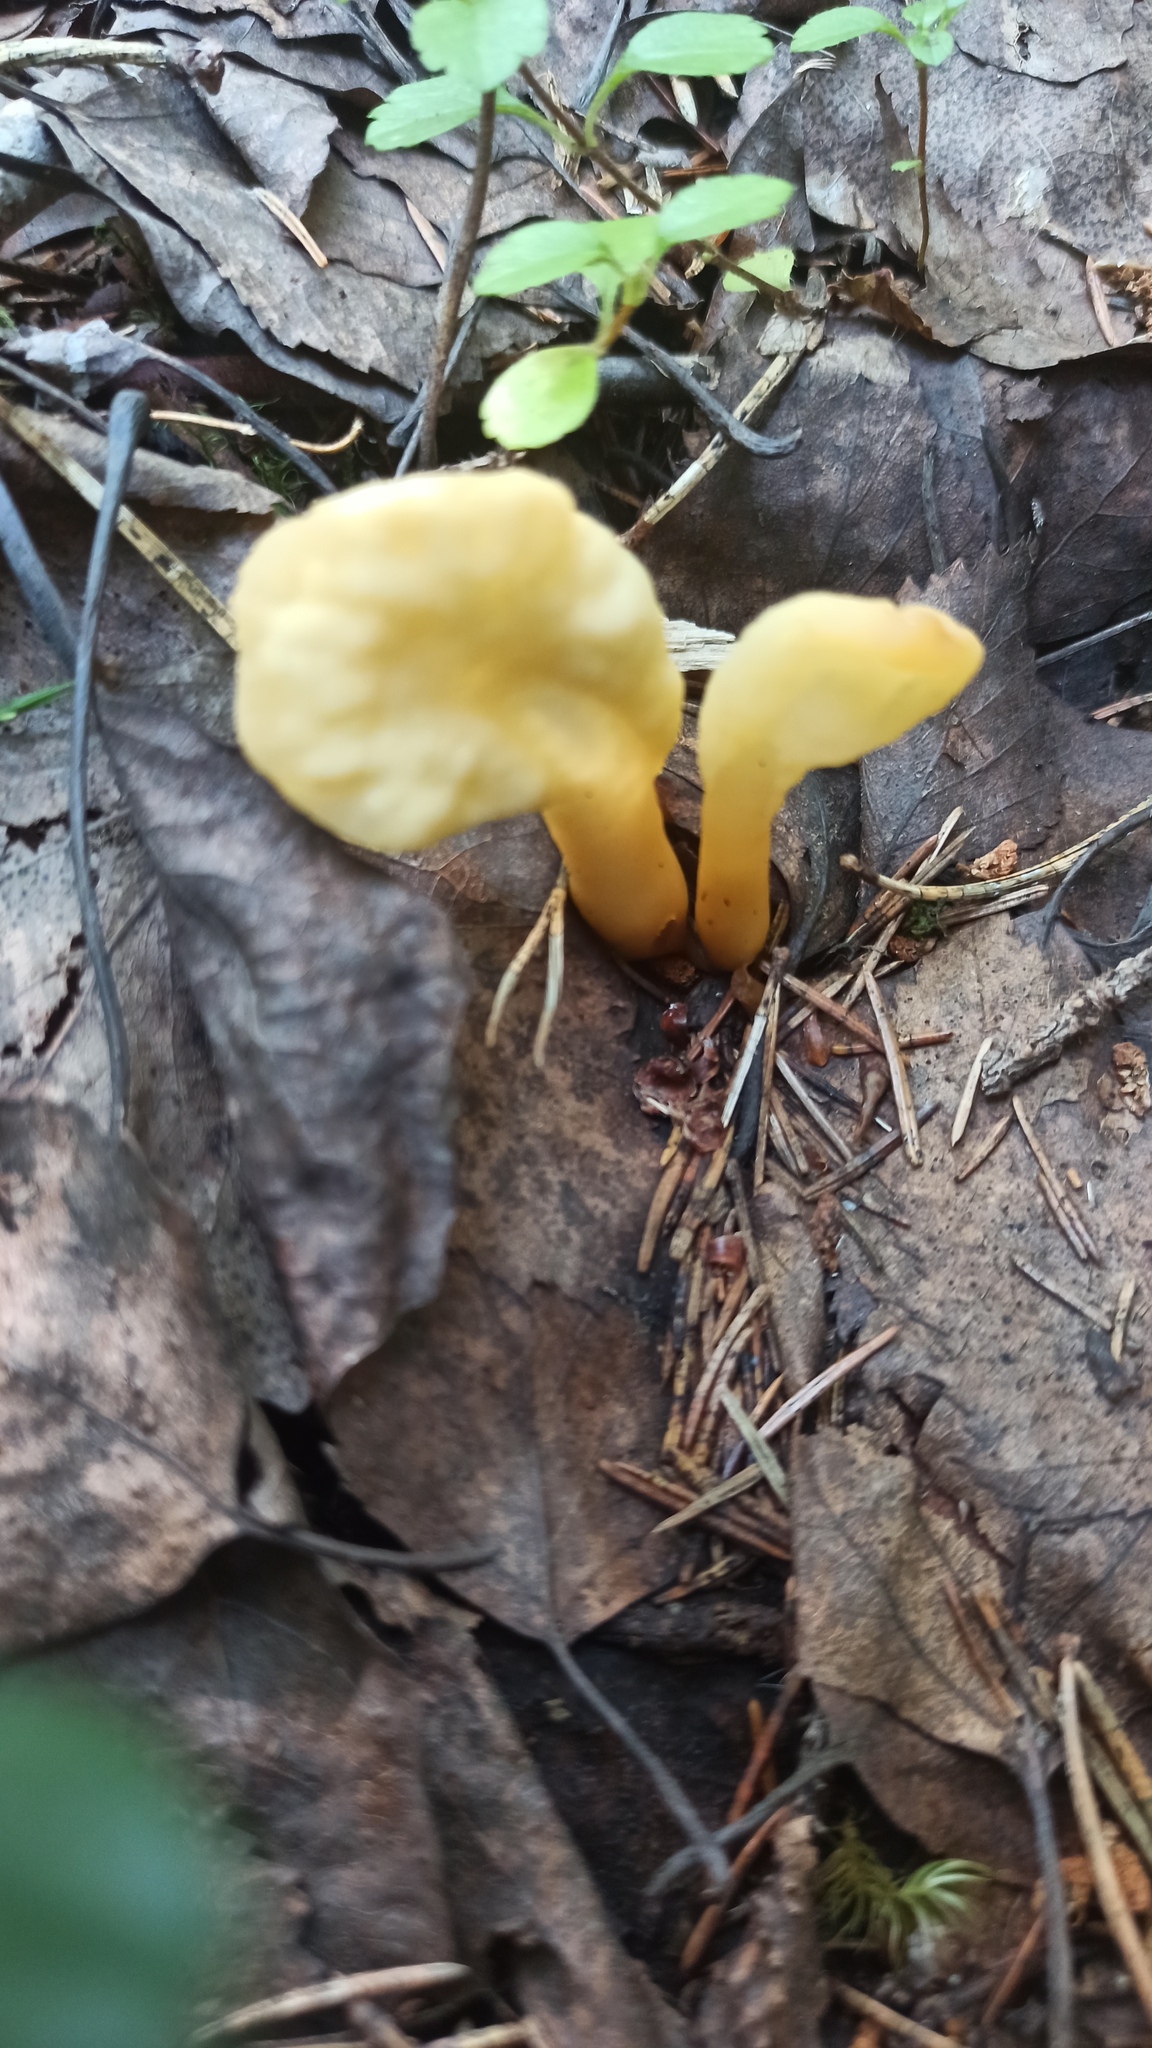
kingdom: Fungi
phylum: Ascomycota
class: Leotiomycetes
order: Rhytismatales
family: Cudoniaceae
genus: Spathularia
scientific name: Spathularia flavida
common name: Yellow fan
